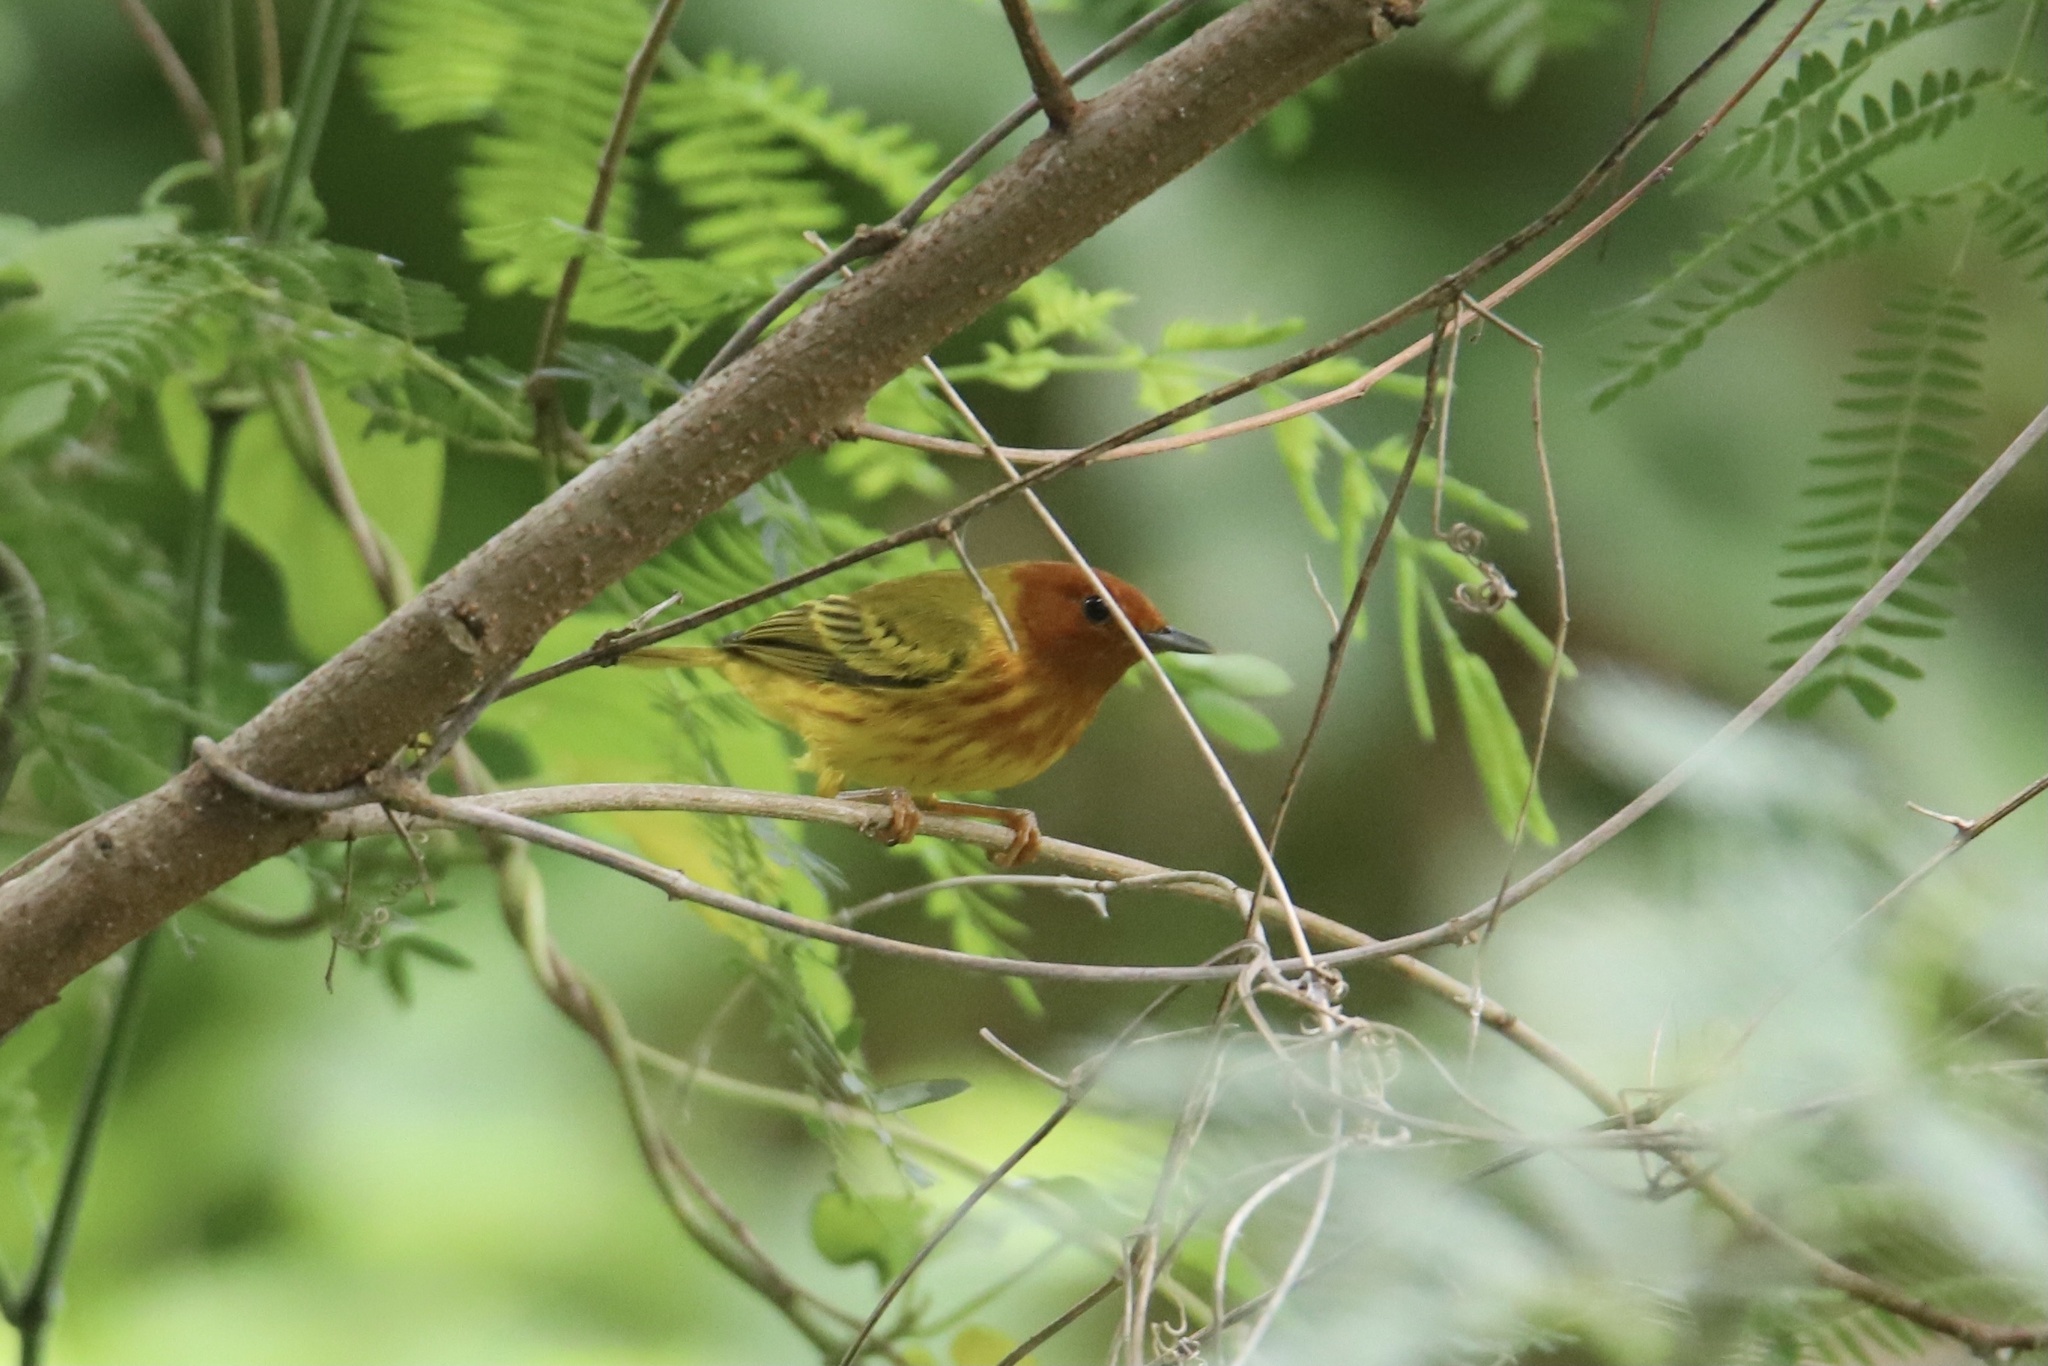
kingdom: Animalia
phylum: Chordata
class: Aves
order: Passeriformes
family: Parulidae
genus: Setophaga
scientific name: Setophaga petechia
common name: Yellow warbler
